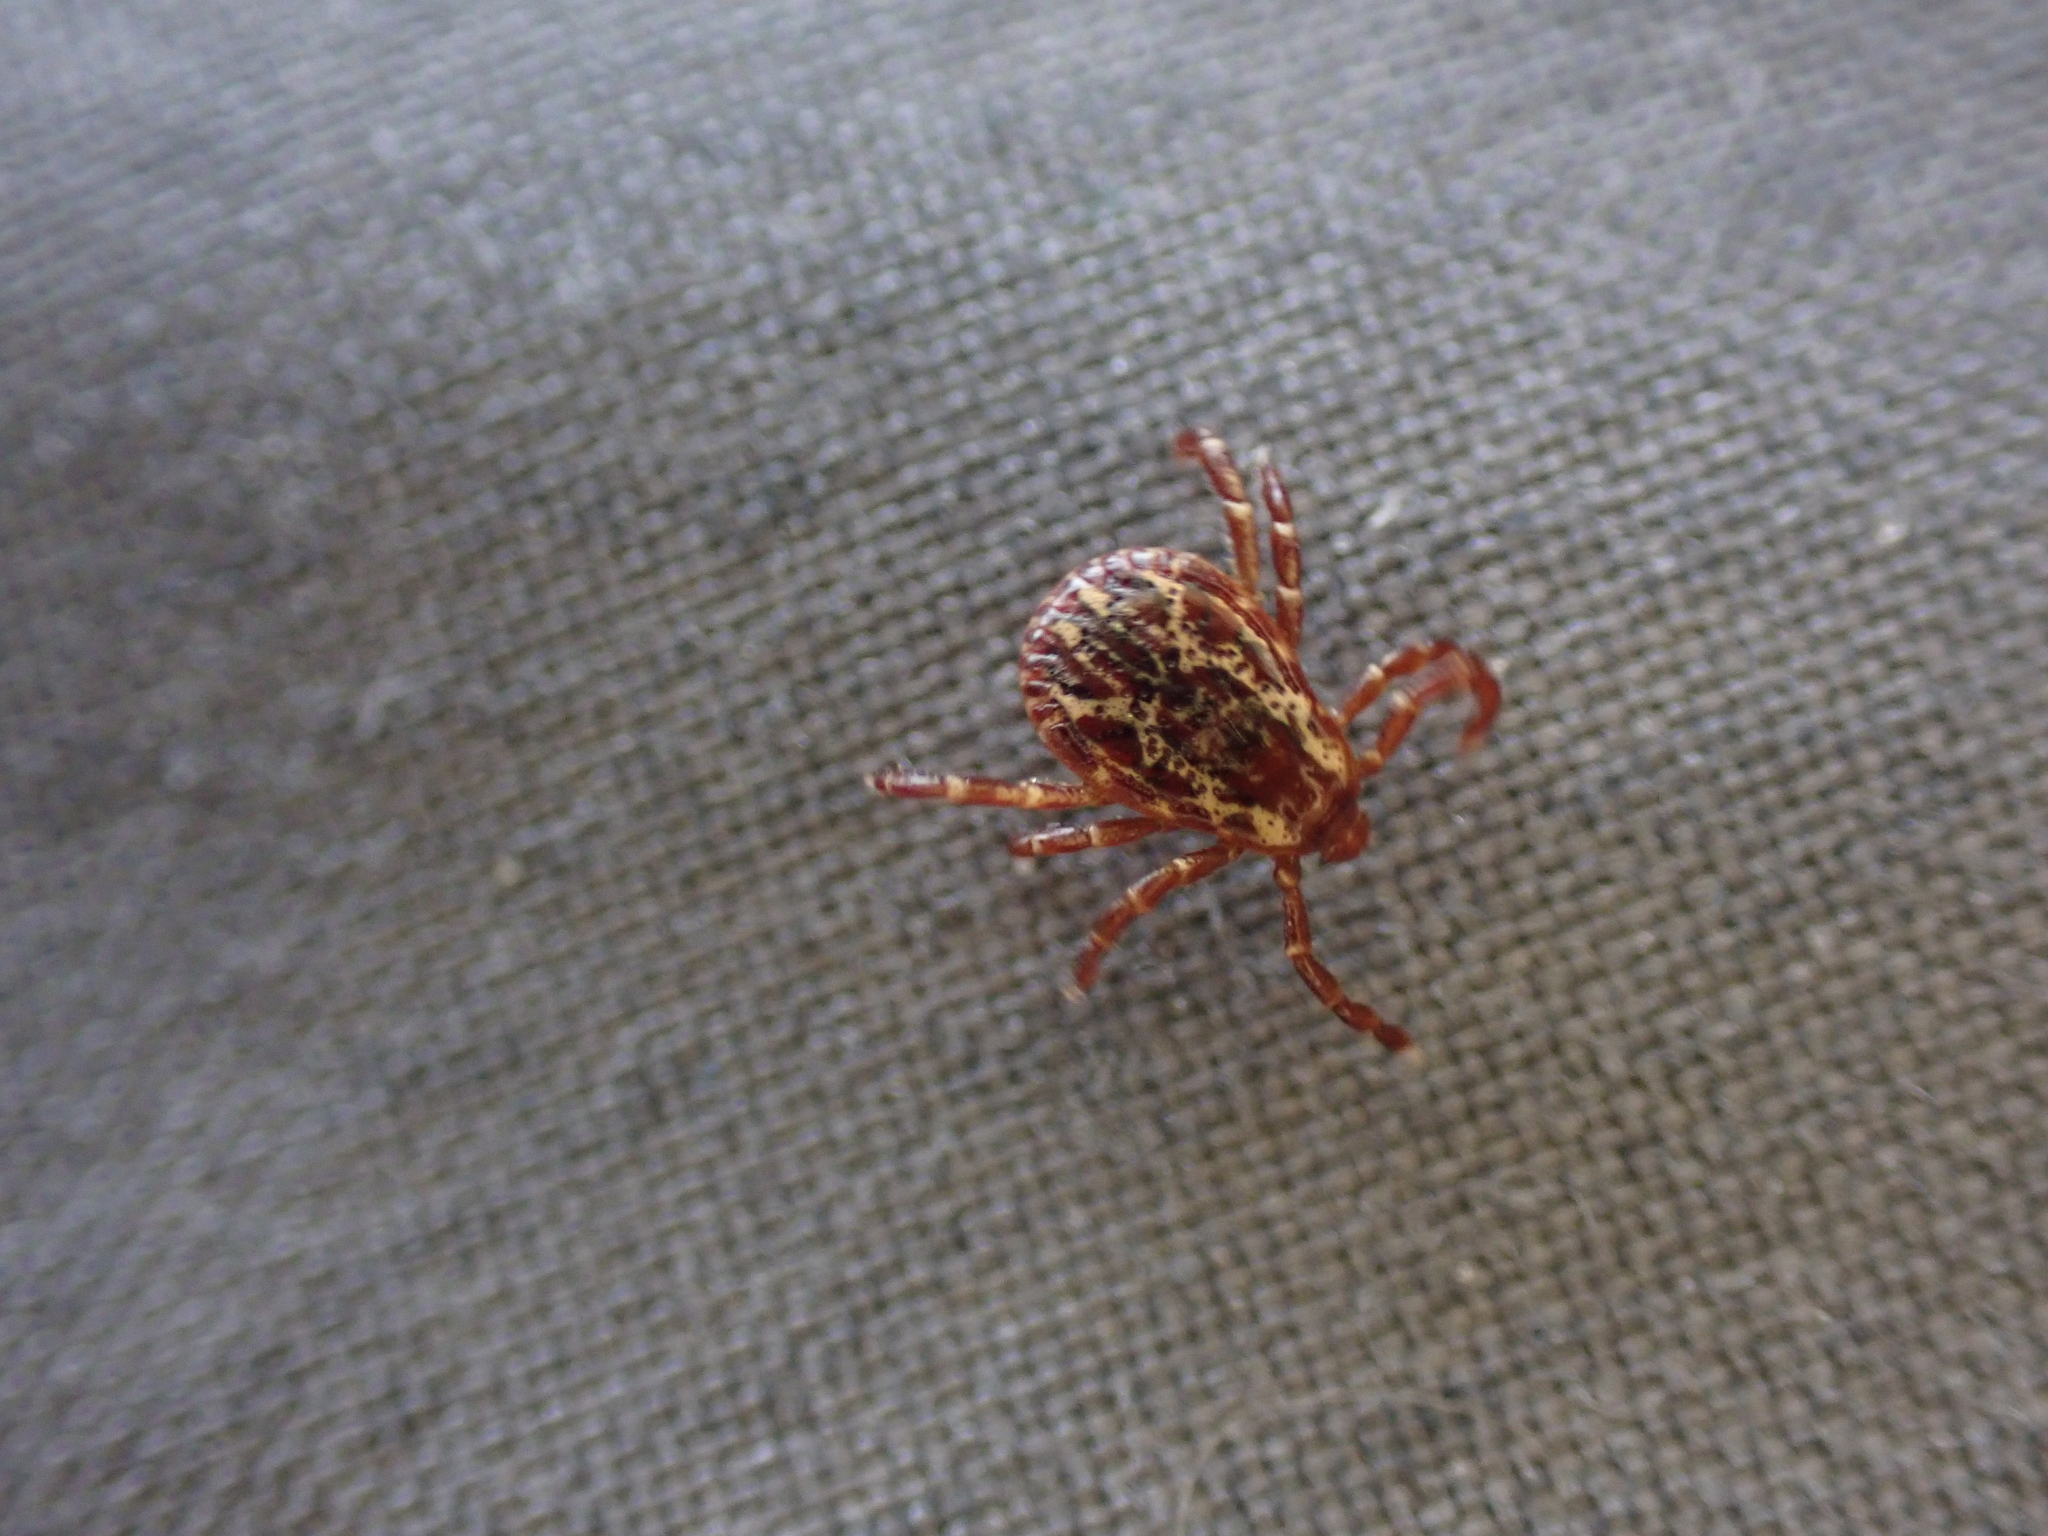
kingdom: Animalia
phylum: Arthropoda
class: Arachnida
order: Ixodida
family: Ixodidae
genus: Dermacentor
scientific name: Dermacentor variabilis
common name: American dog tick
